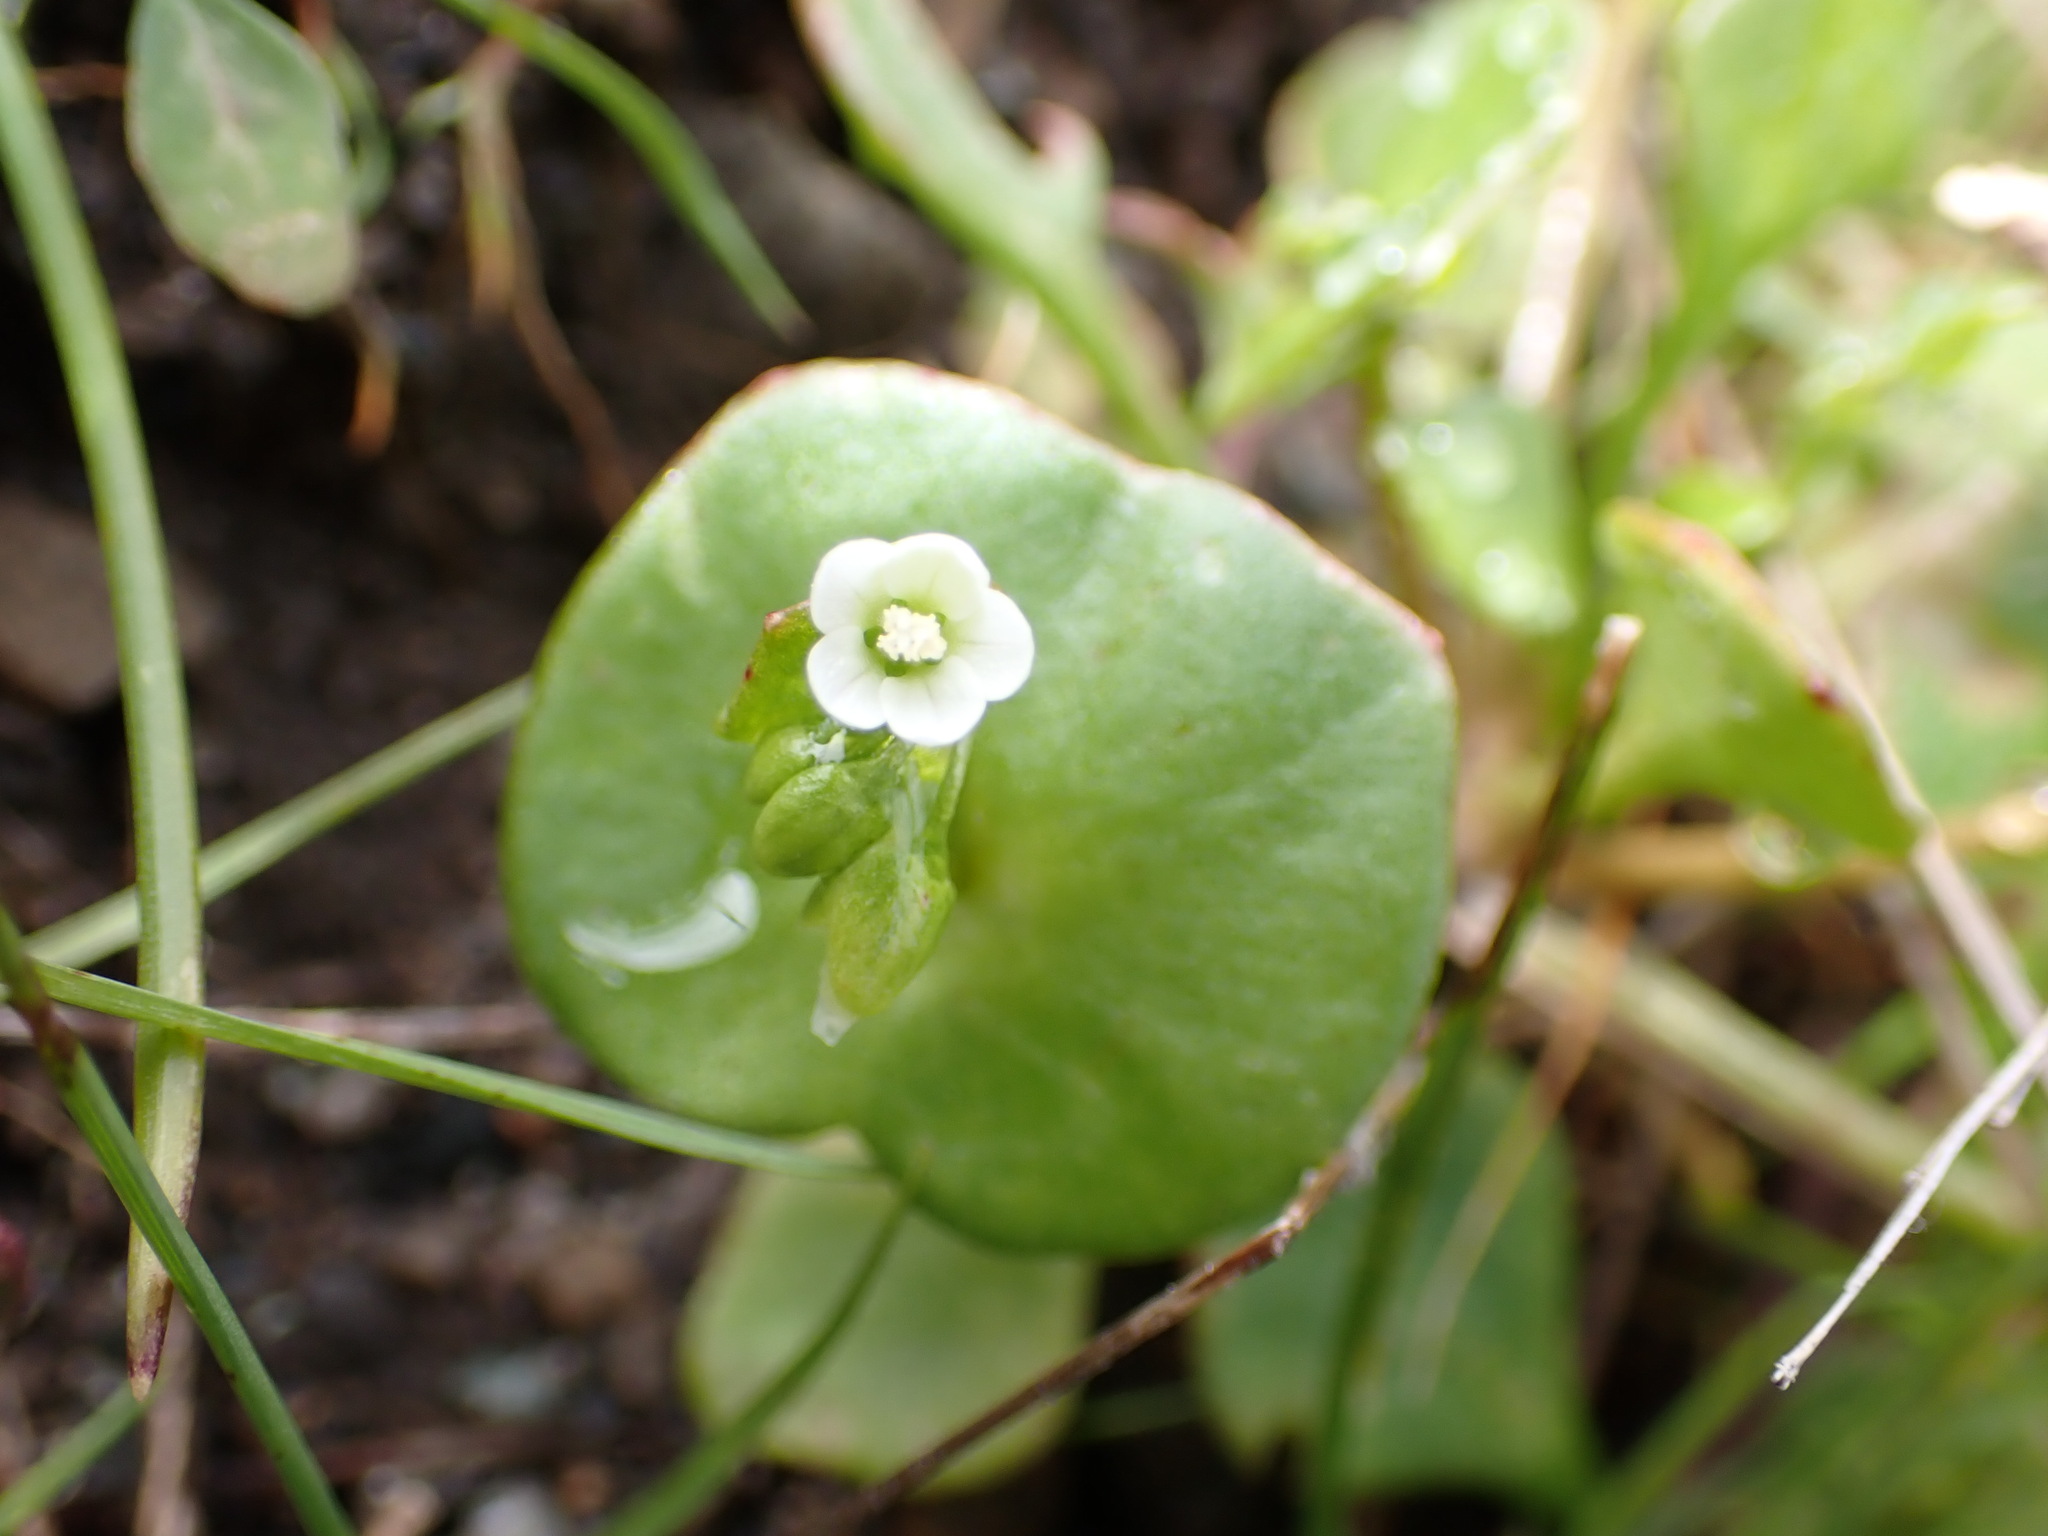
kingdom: Plantae
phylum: Tracheophyta
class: Magnoliopsida
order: Caryophyllales
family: Montiaceae
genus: Claytonia
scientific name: Claytonia perfoliata
